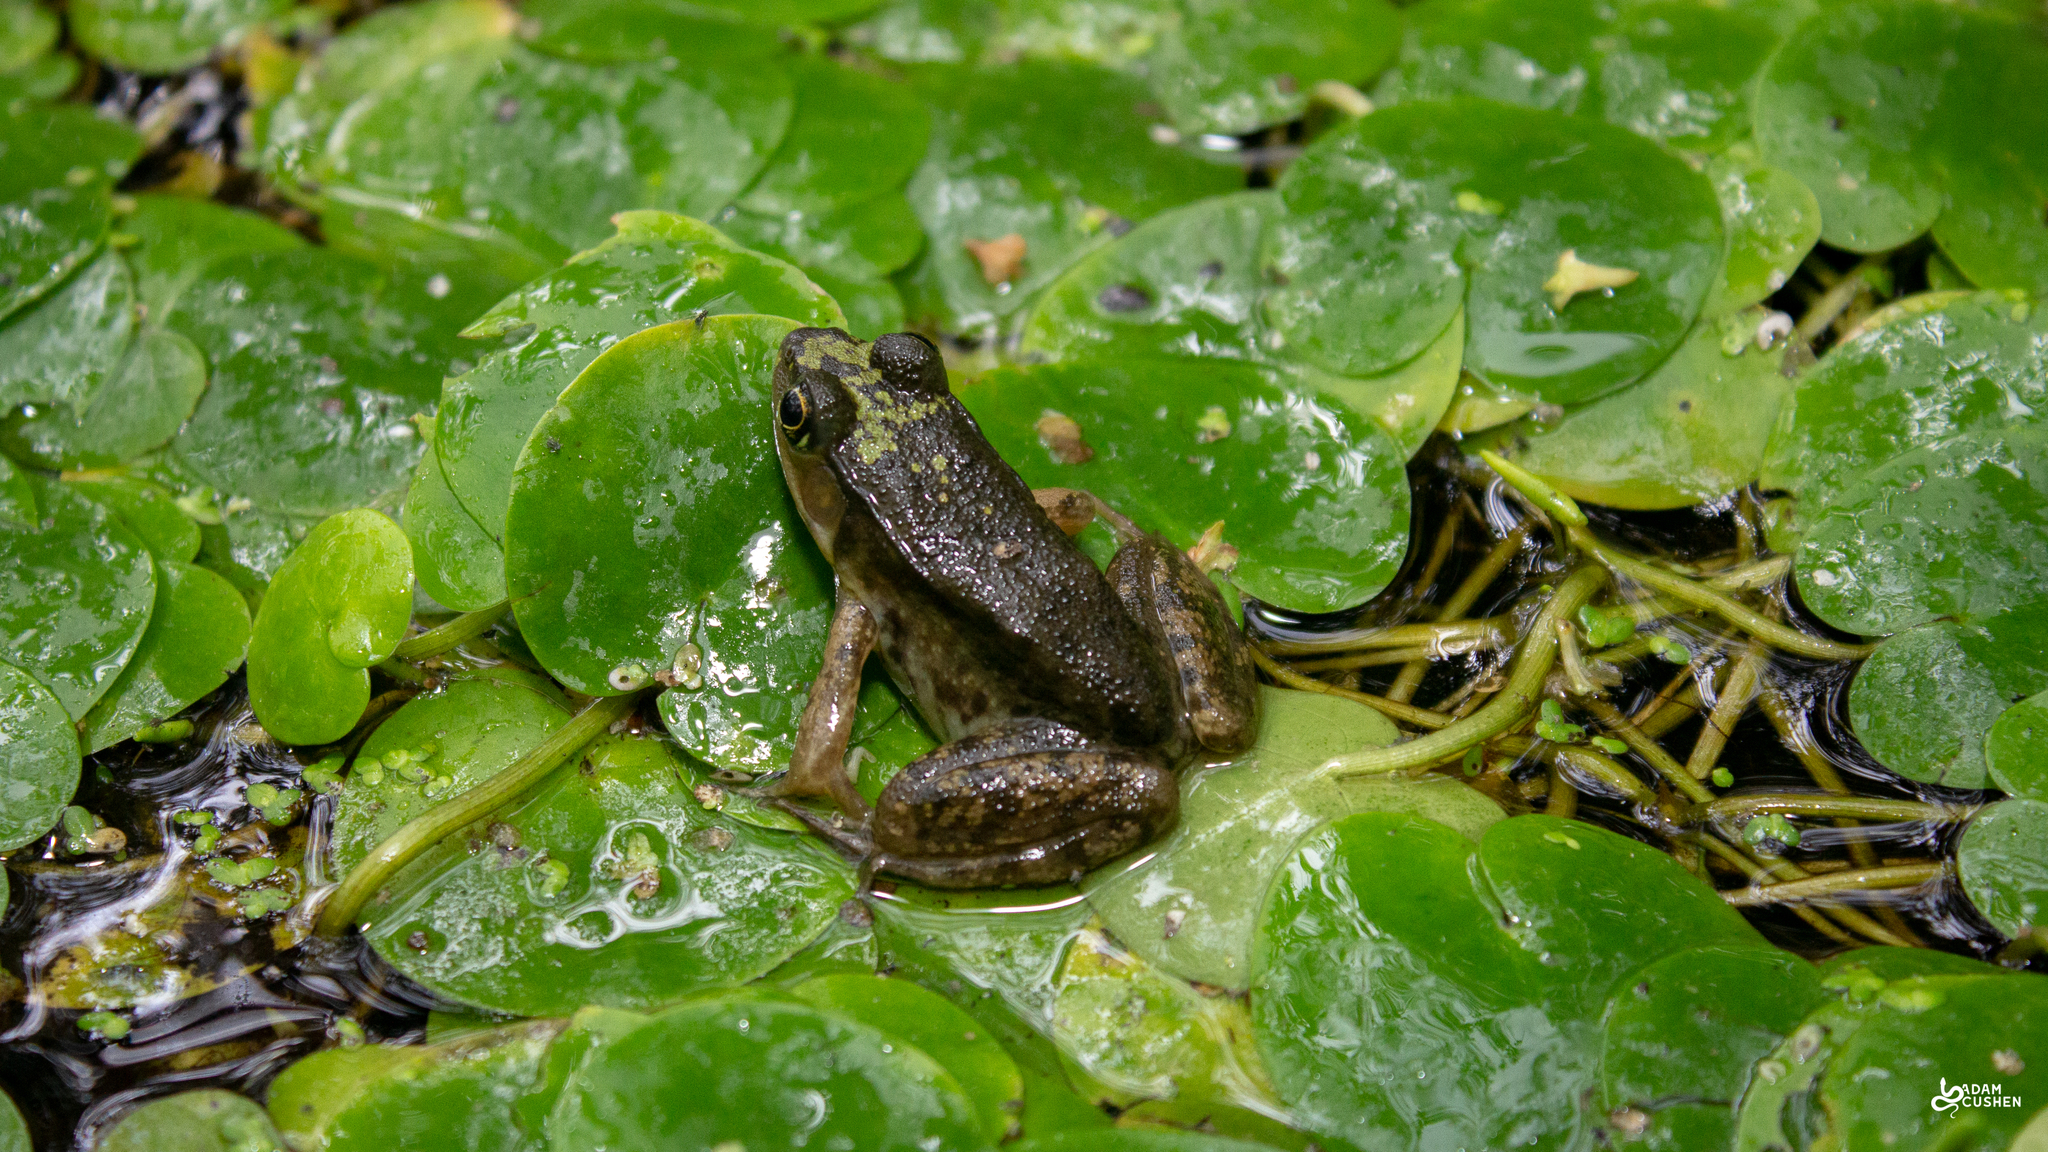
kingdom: Animalia
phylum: Chordata
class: Amphibia
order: Anura
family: Ranidae
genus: Lithobates
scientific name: Lithobates clamitans
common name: Green frog
